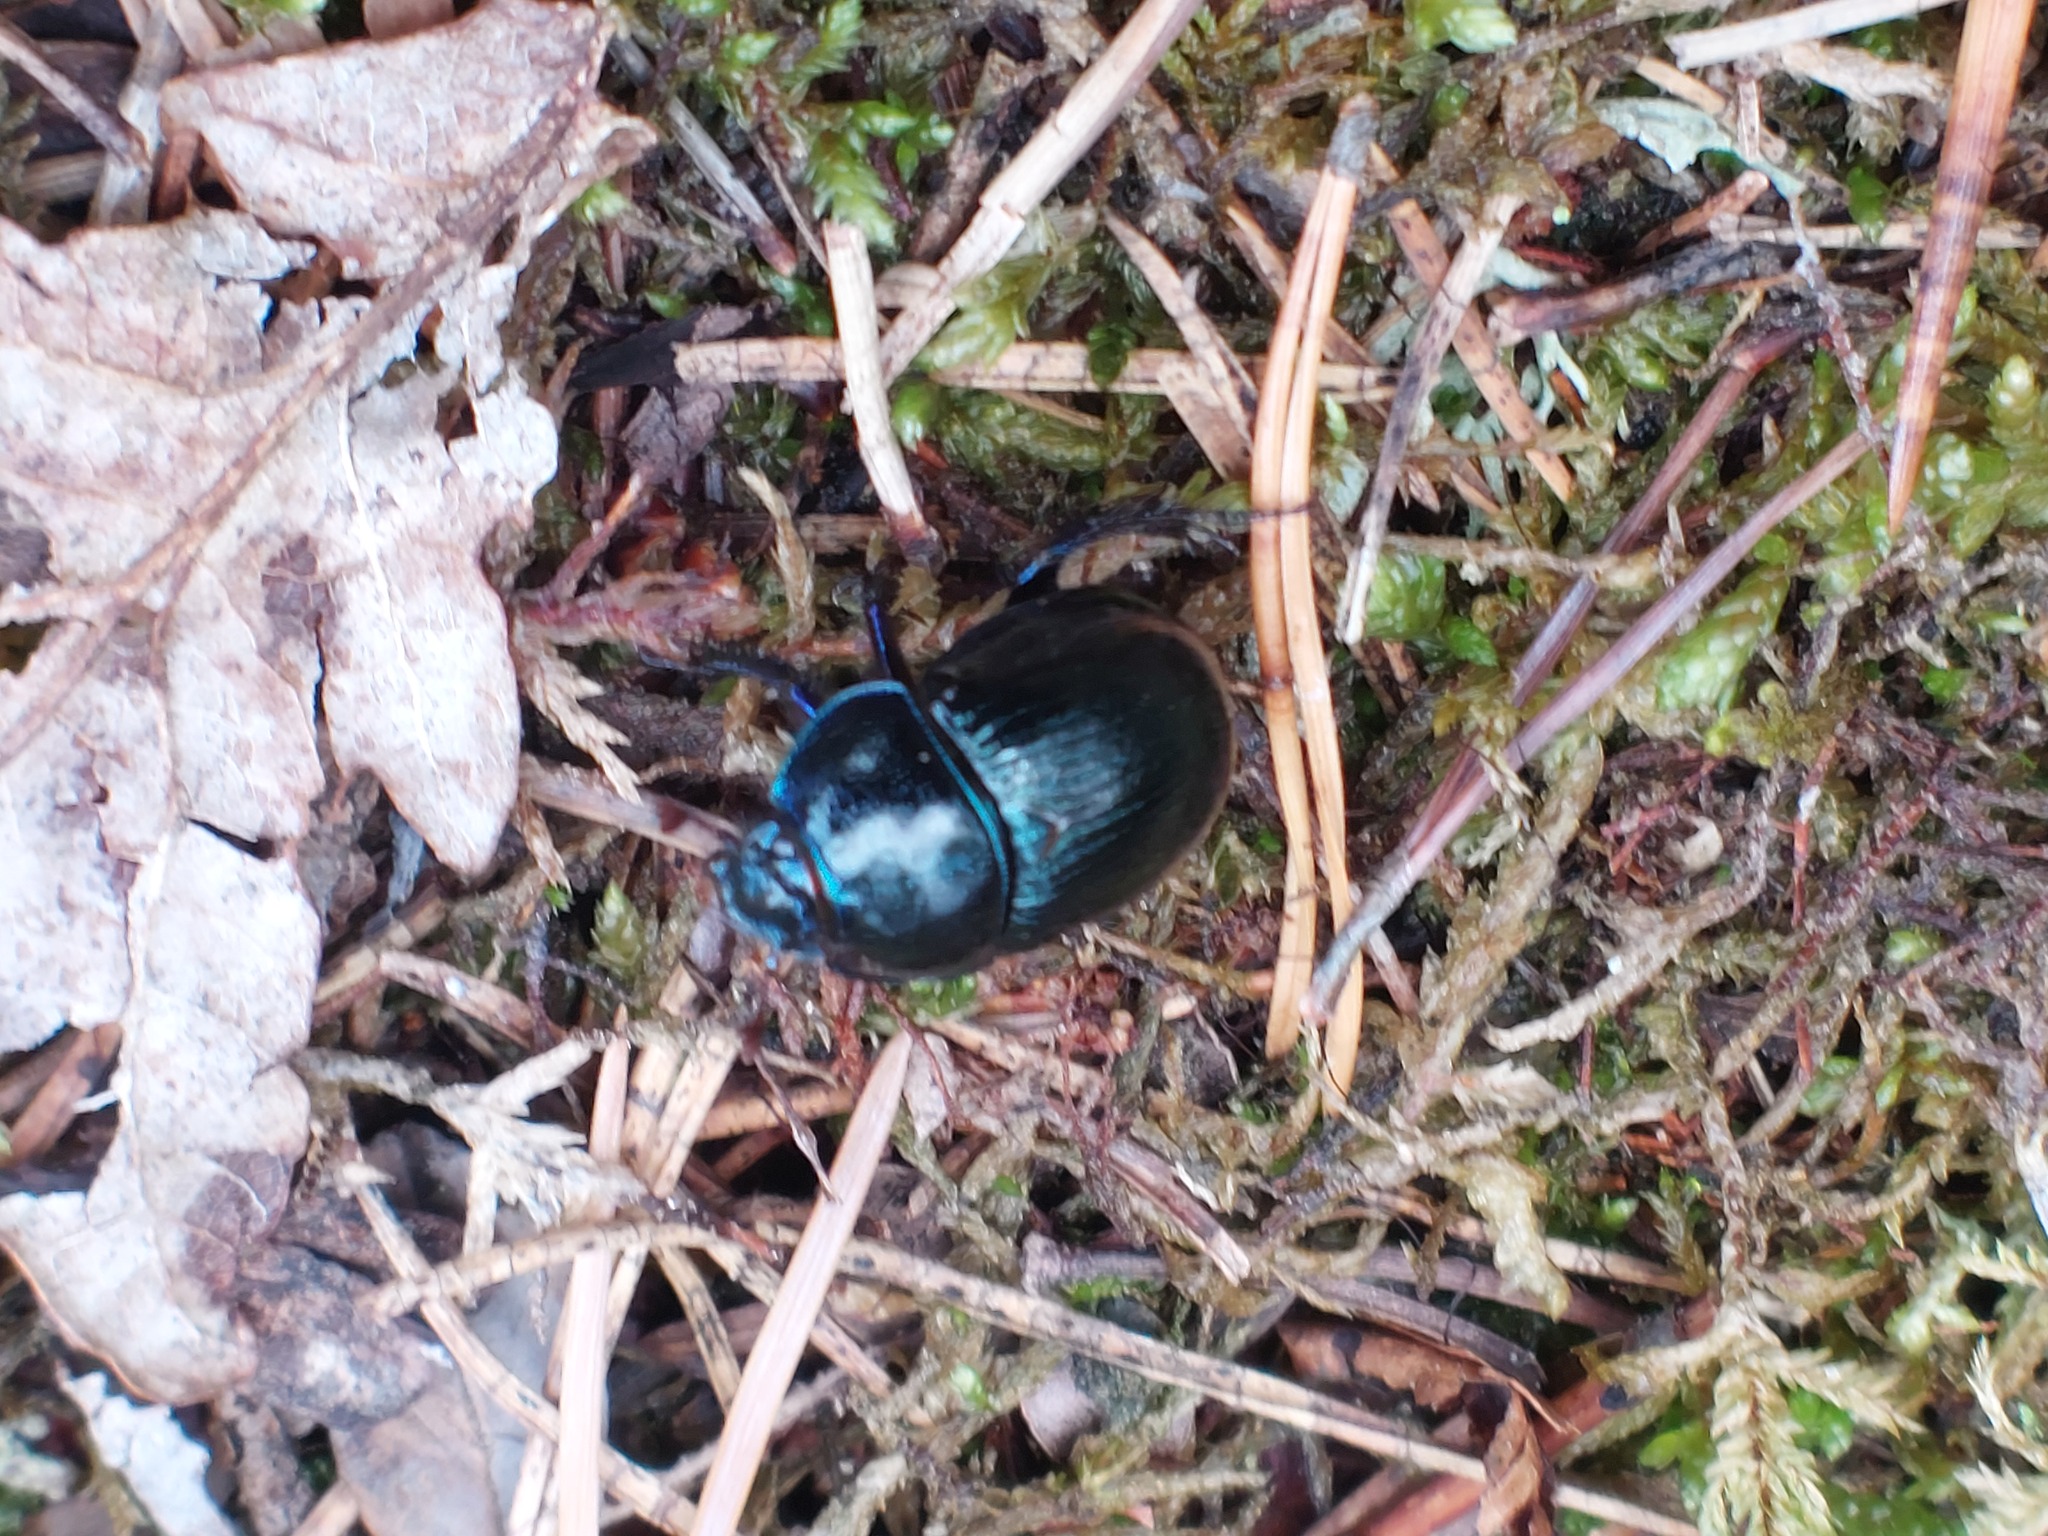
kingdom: Animalia
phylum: Arthropoda
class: Insecta
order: Coleoptera
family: Geotrupidae
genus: Anoplotrupes
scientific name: Anoplotrupes stercorosus
